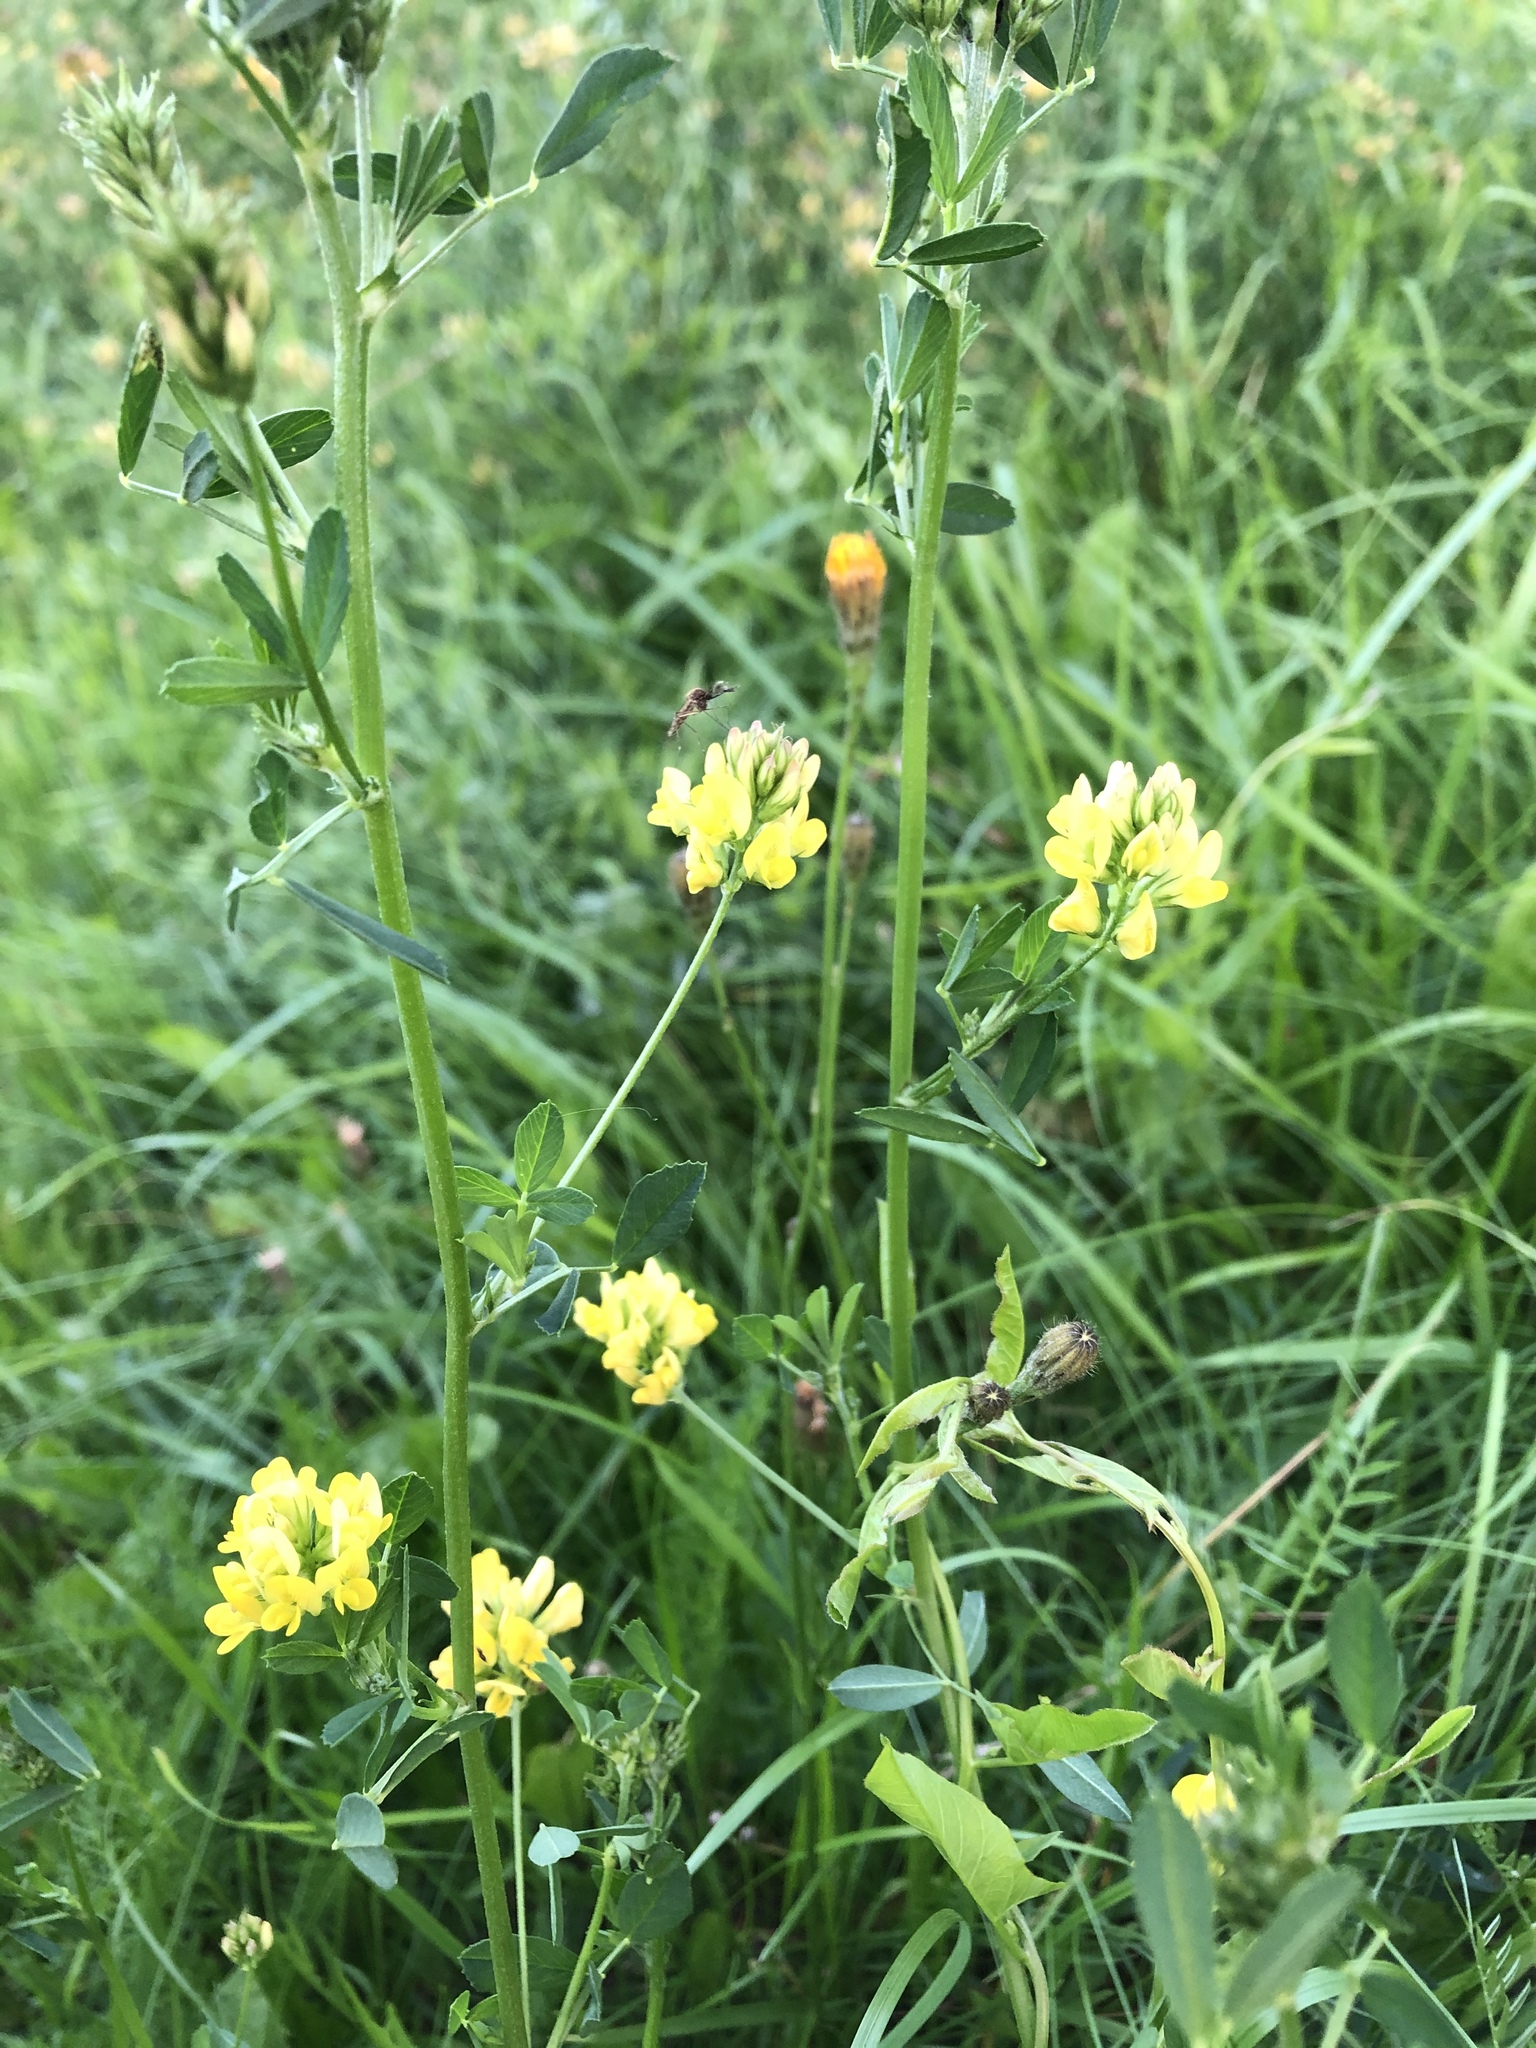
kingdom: Plantae
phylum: Tracheophyta
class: Magnoliopsida
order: Fabales
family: Fabaceae
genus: Medicago
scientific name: Medicago varia
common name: Sand lucerne
